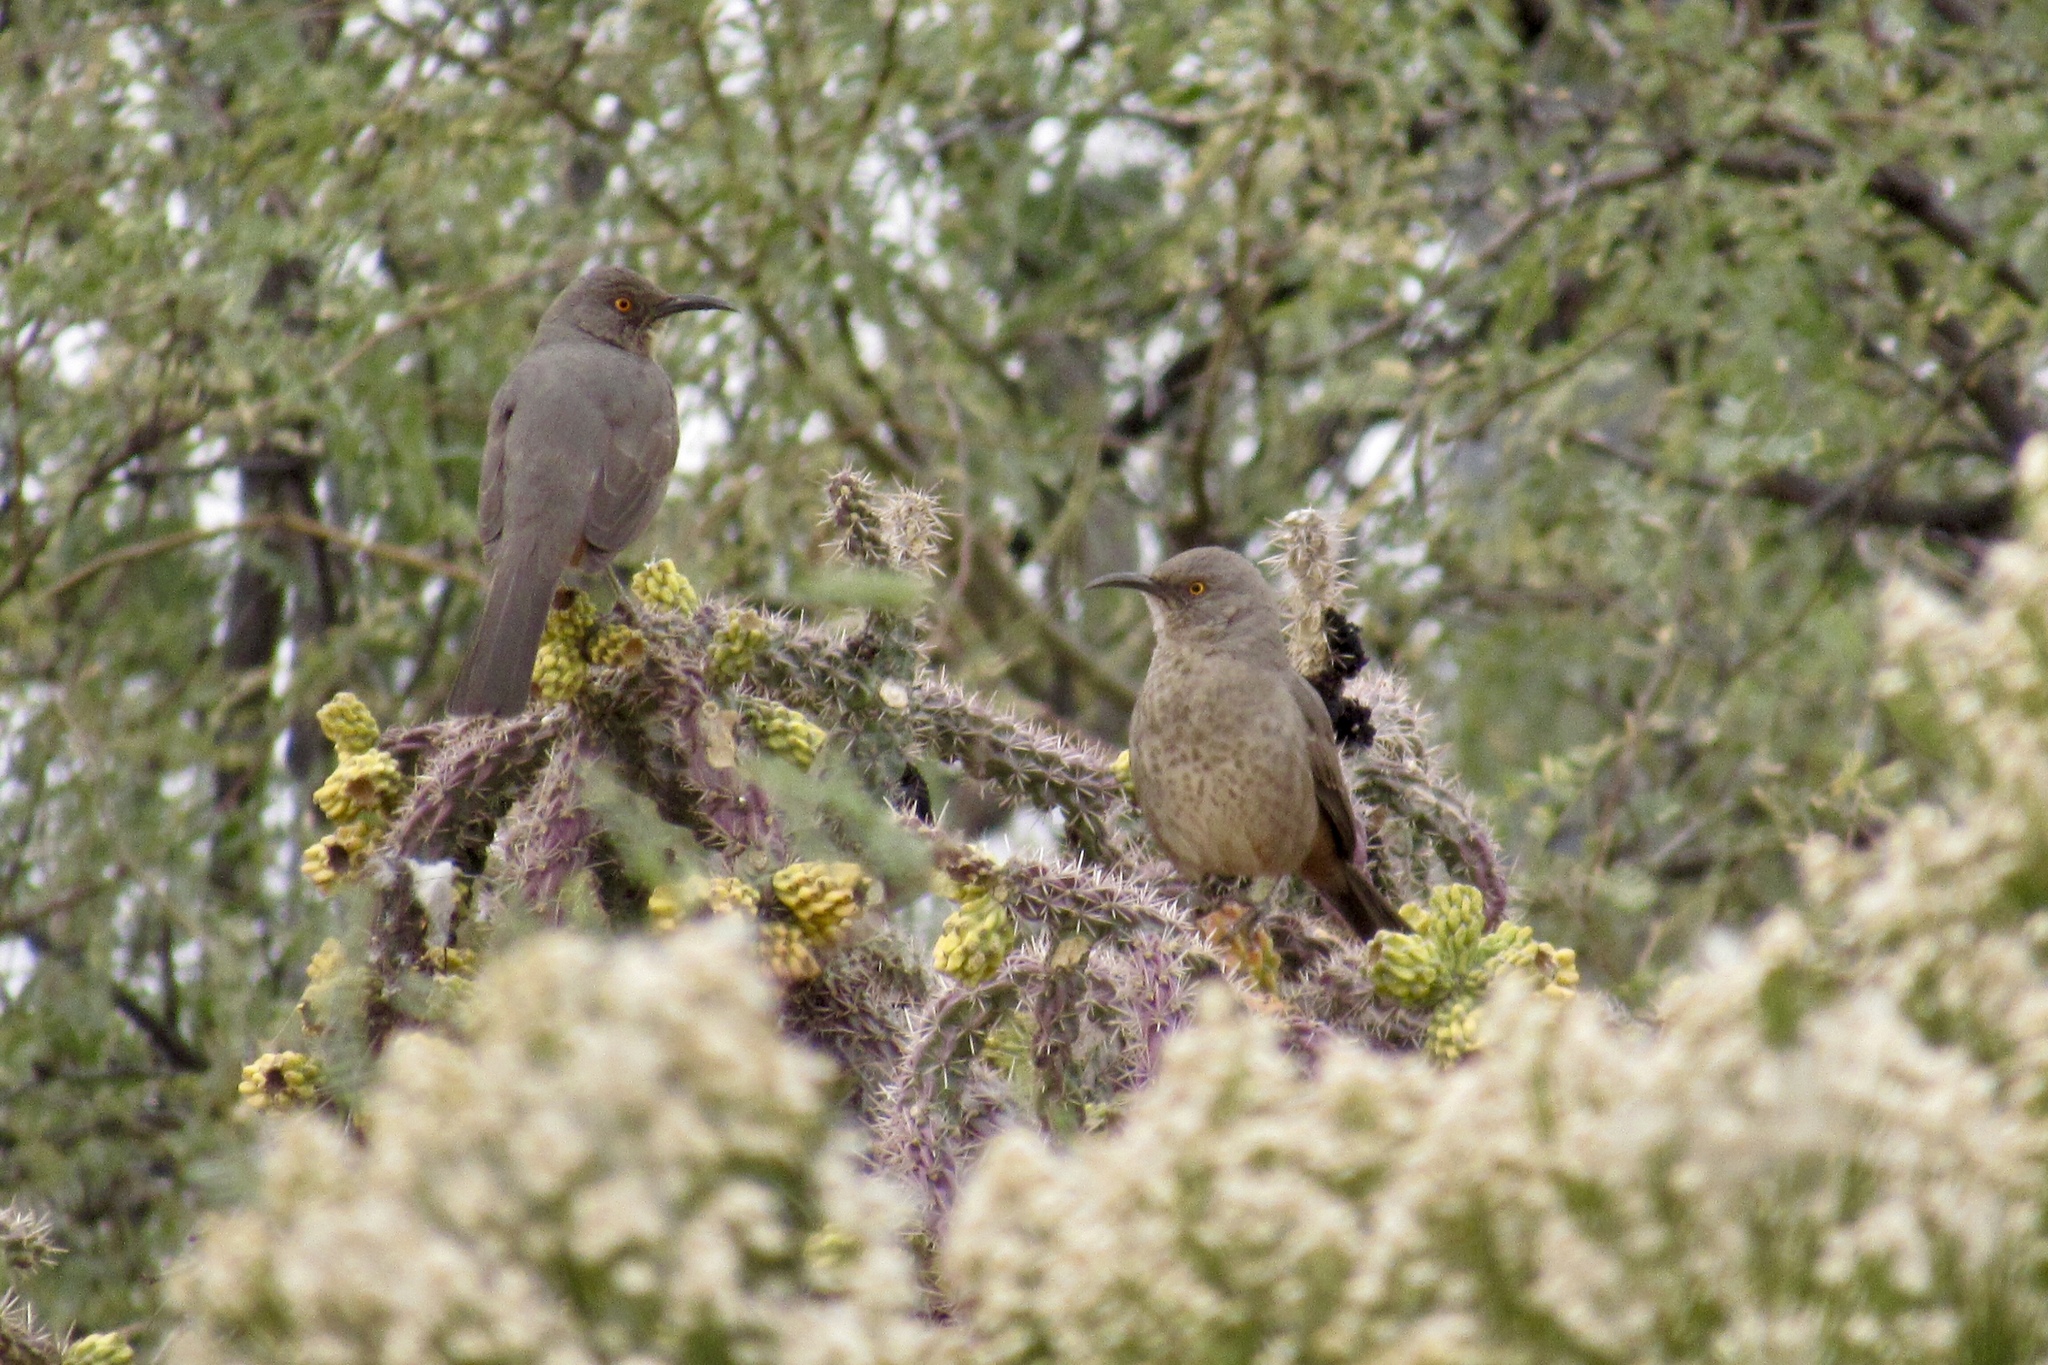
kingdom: Animalia
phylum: Chordata
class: Aves
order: Passeriformes
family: Mimidae
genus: Toxostoma
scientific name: Toxostoma curvirostre
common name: Curve-billed thrasher
